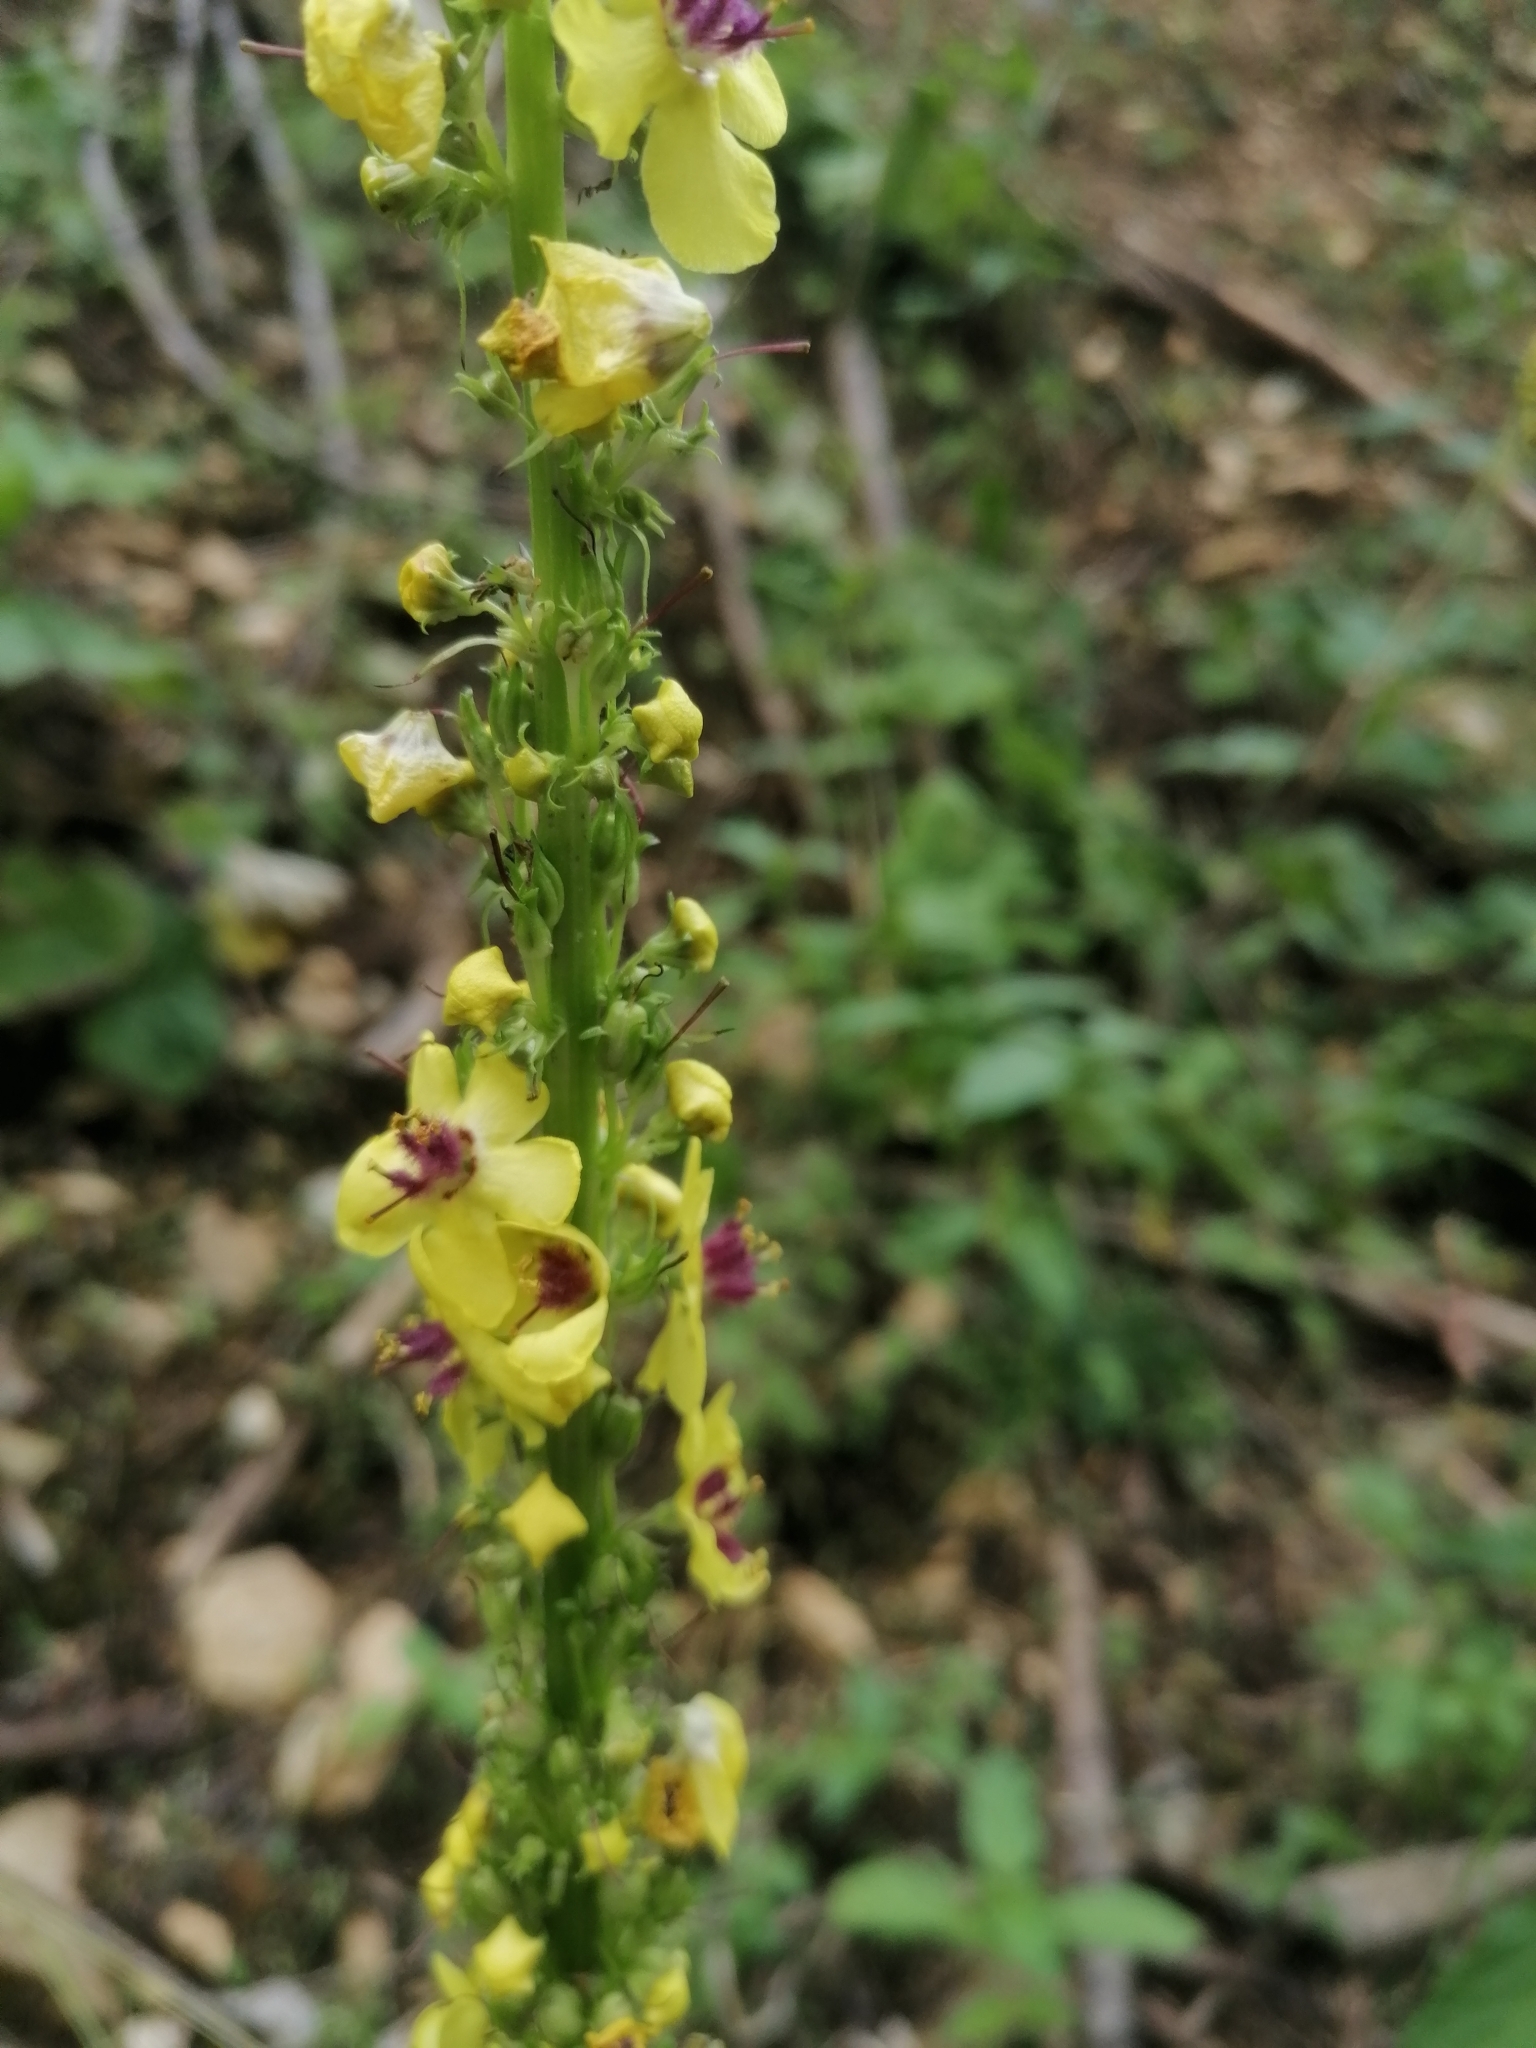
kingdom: Plantae
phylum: Tracheophyta
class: Magnoliopsida
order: Lamiales
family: Scrophulariaceae
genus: Verbascum
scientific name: Verbascum nigrum
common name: Dark mullein
